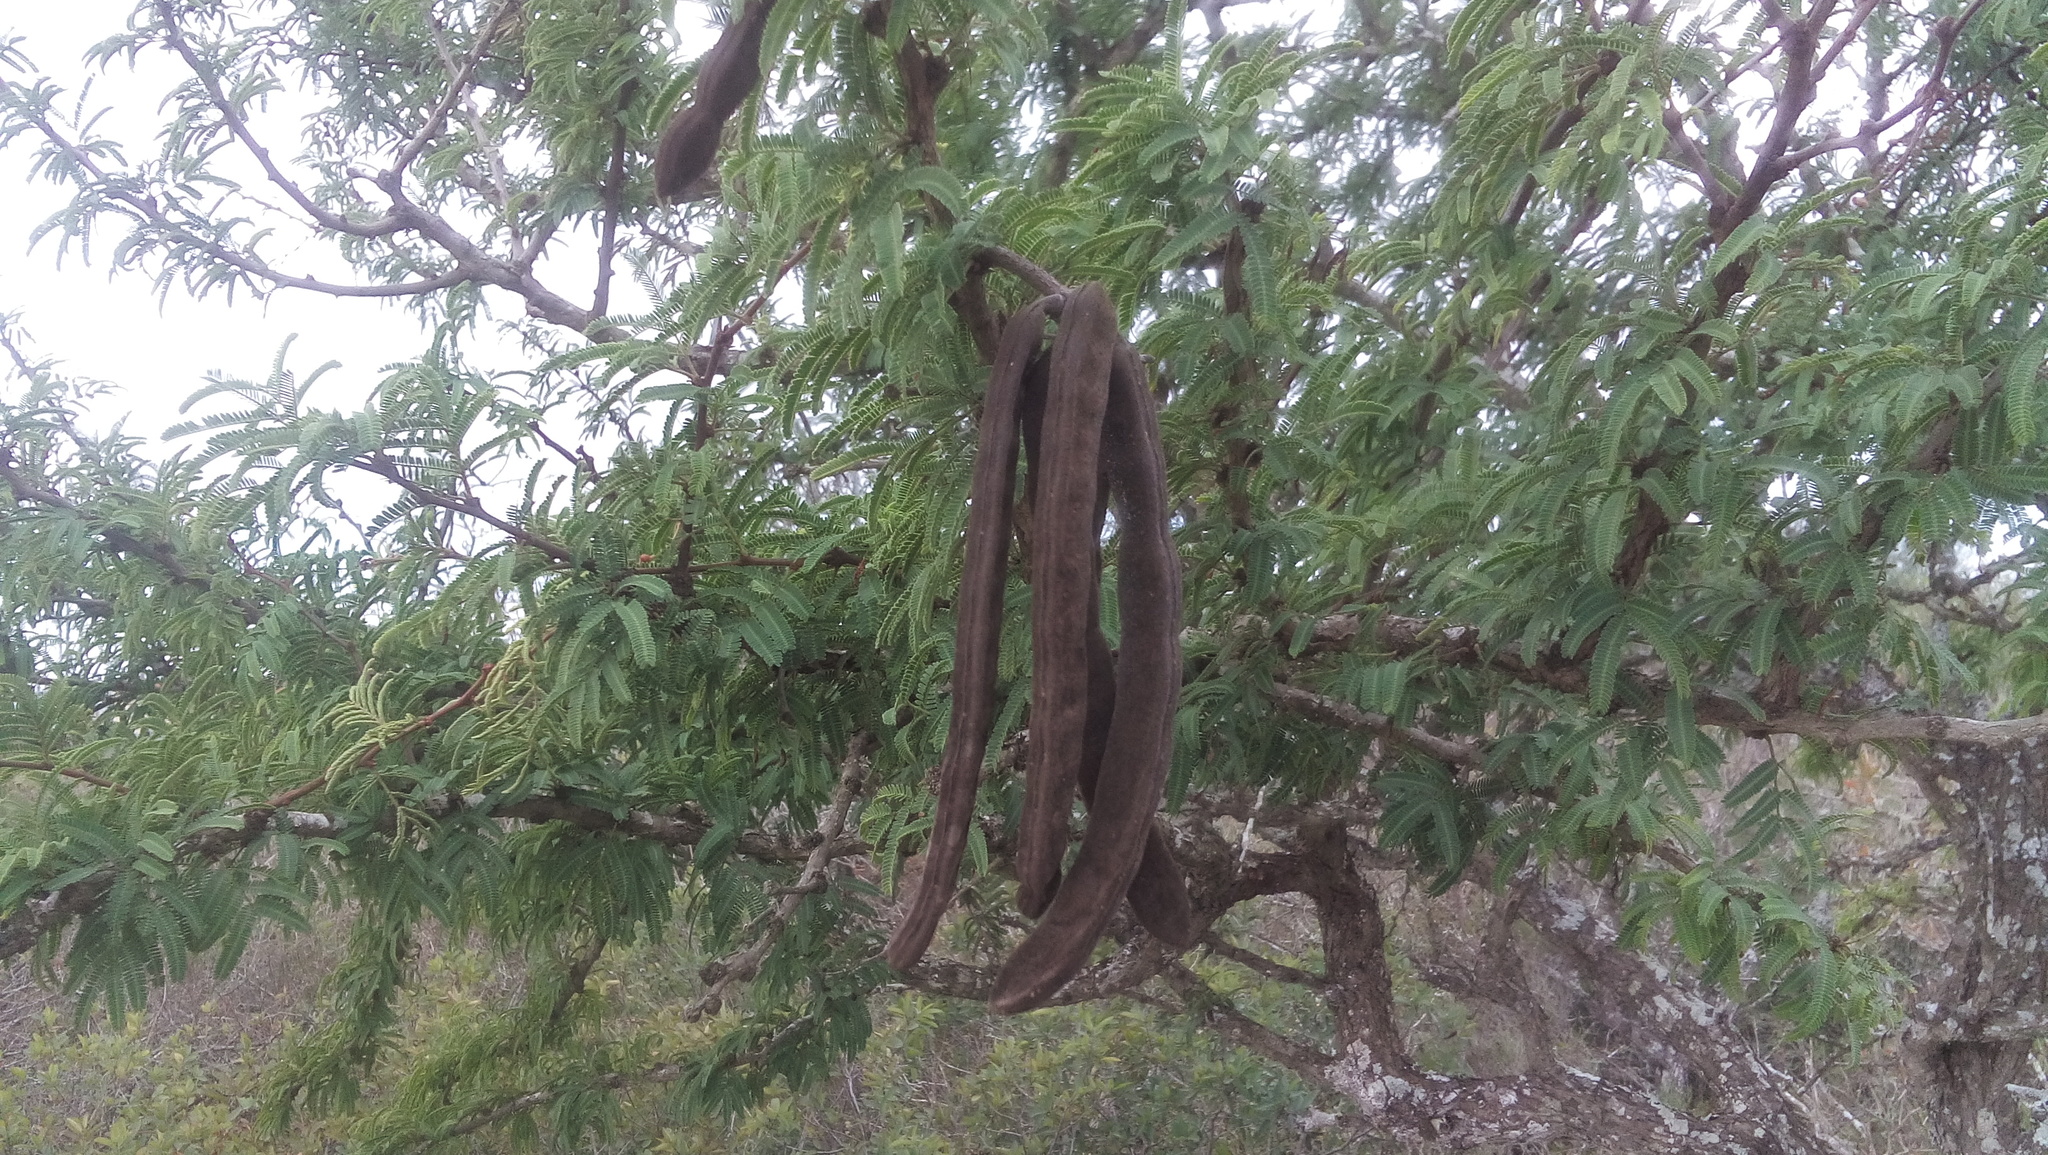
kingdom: Plantae
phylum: Tracheophyta
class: Magnoliopsida
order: Fabales
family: Fabaceae
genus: Vachellia
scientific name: Vachellia schaffneri
